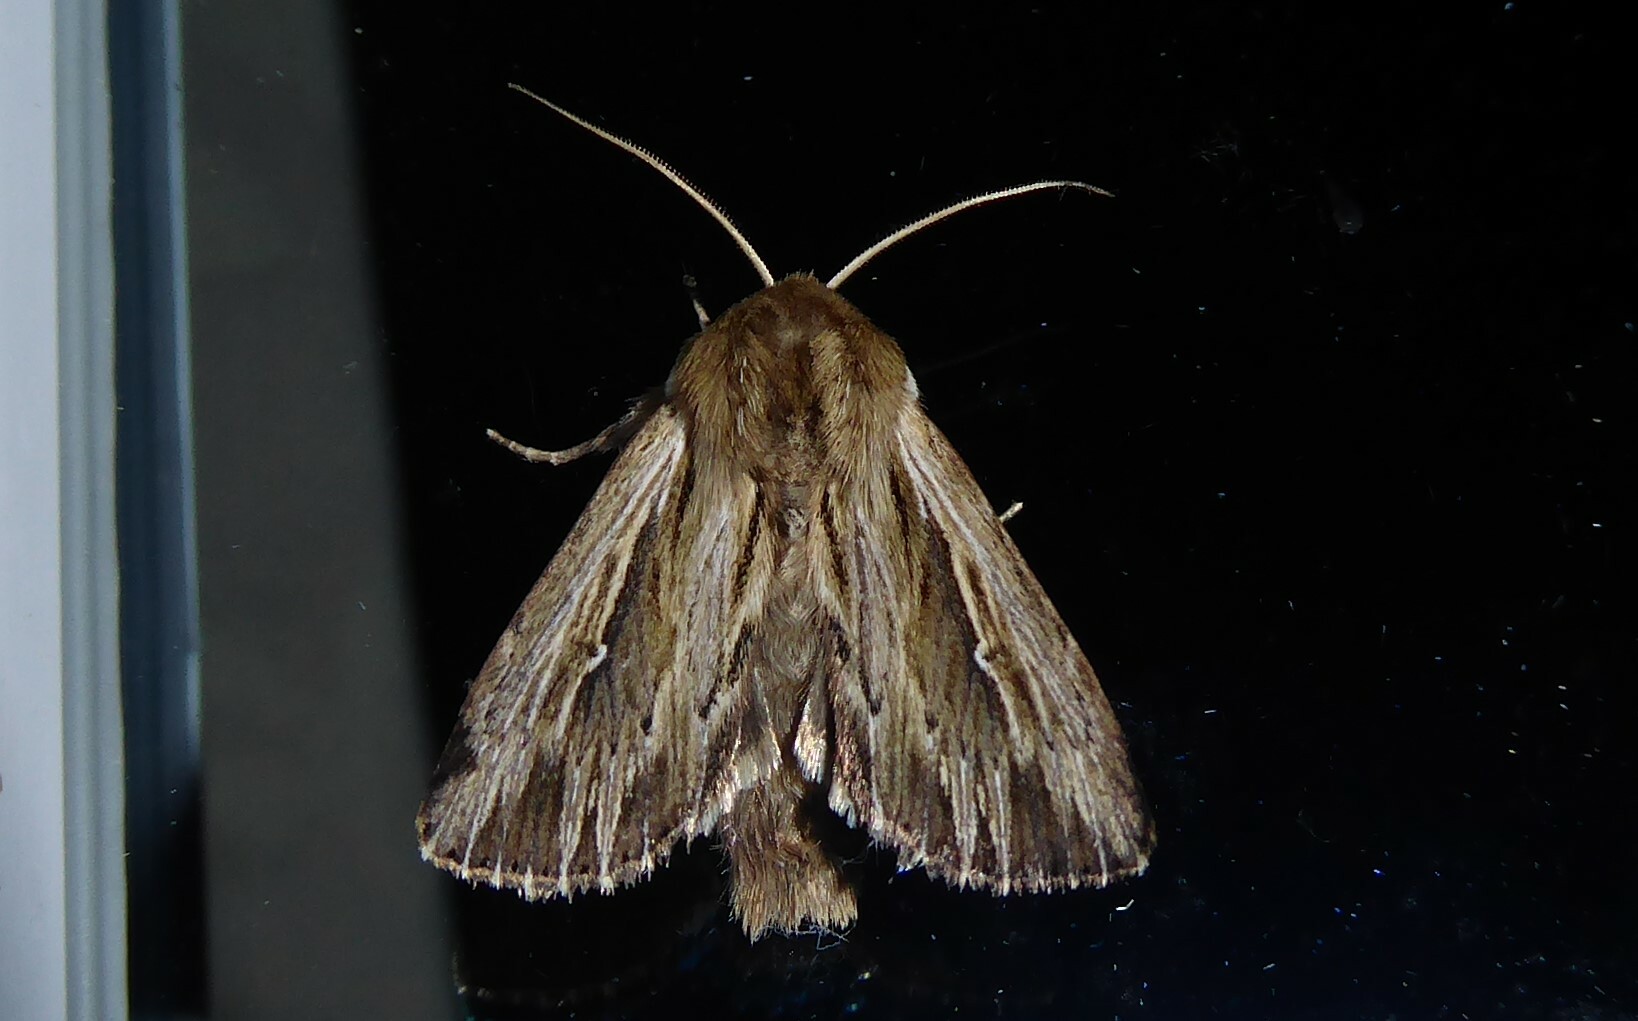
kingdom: Animalia
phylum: Arthropoda
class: Insecta
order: Lepidoptera
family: Noctuidae
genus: Persectania
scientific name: Persectania aversa
